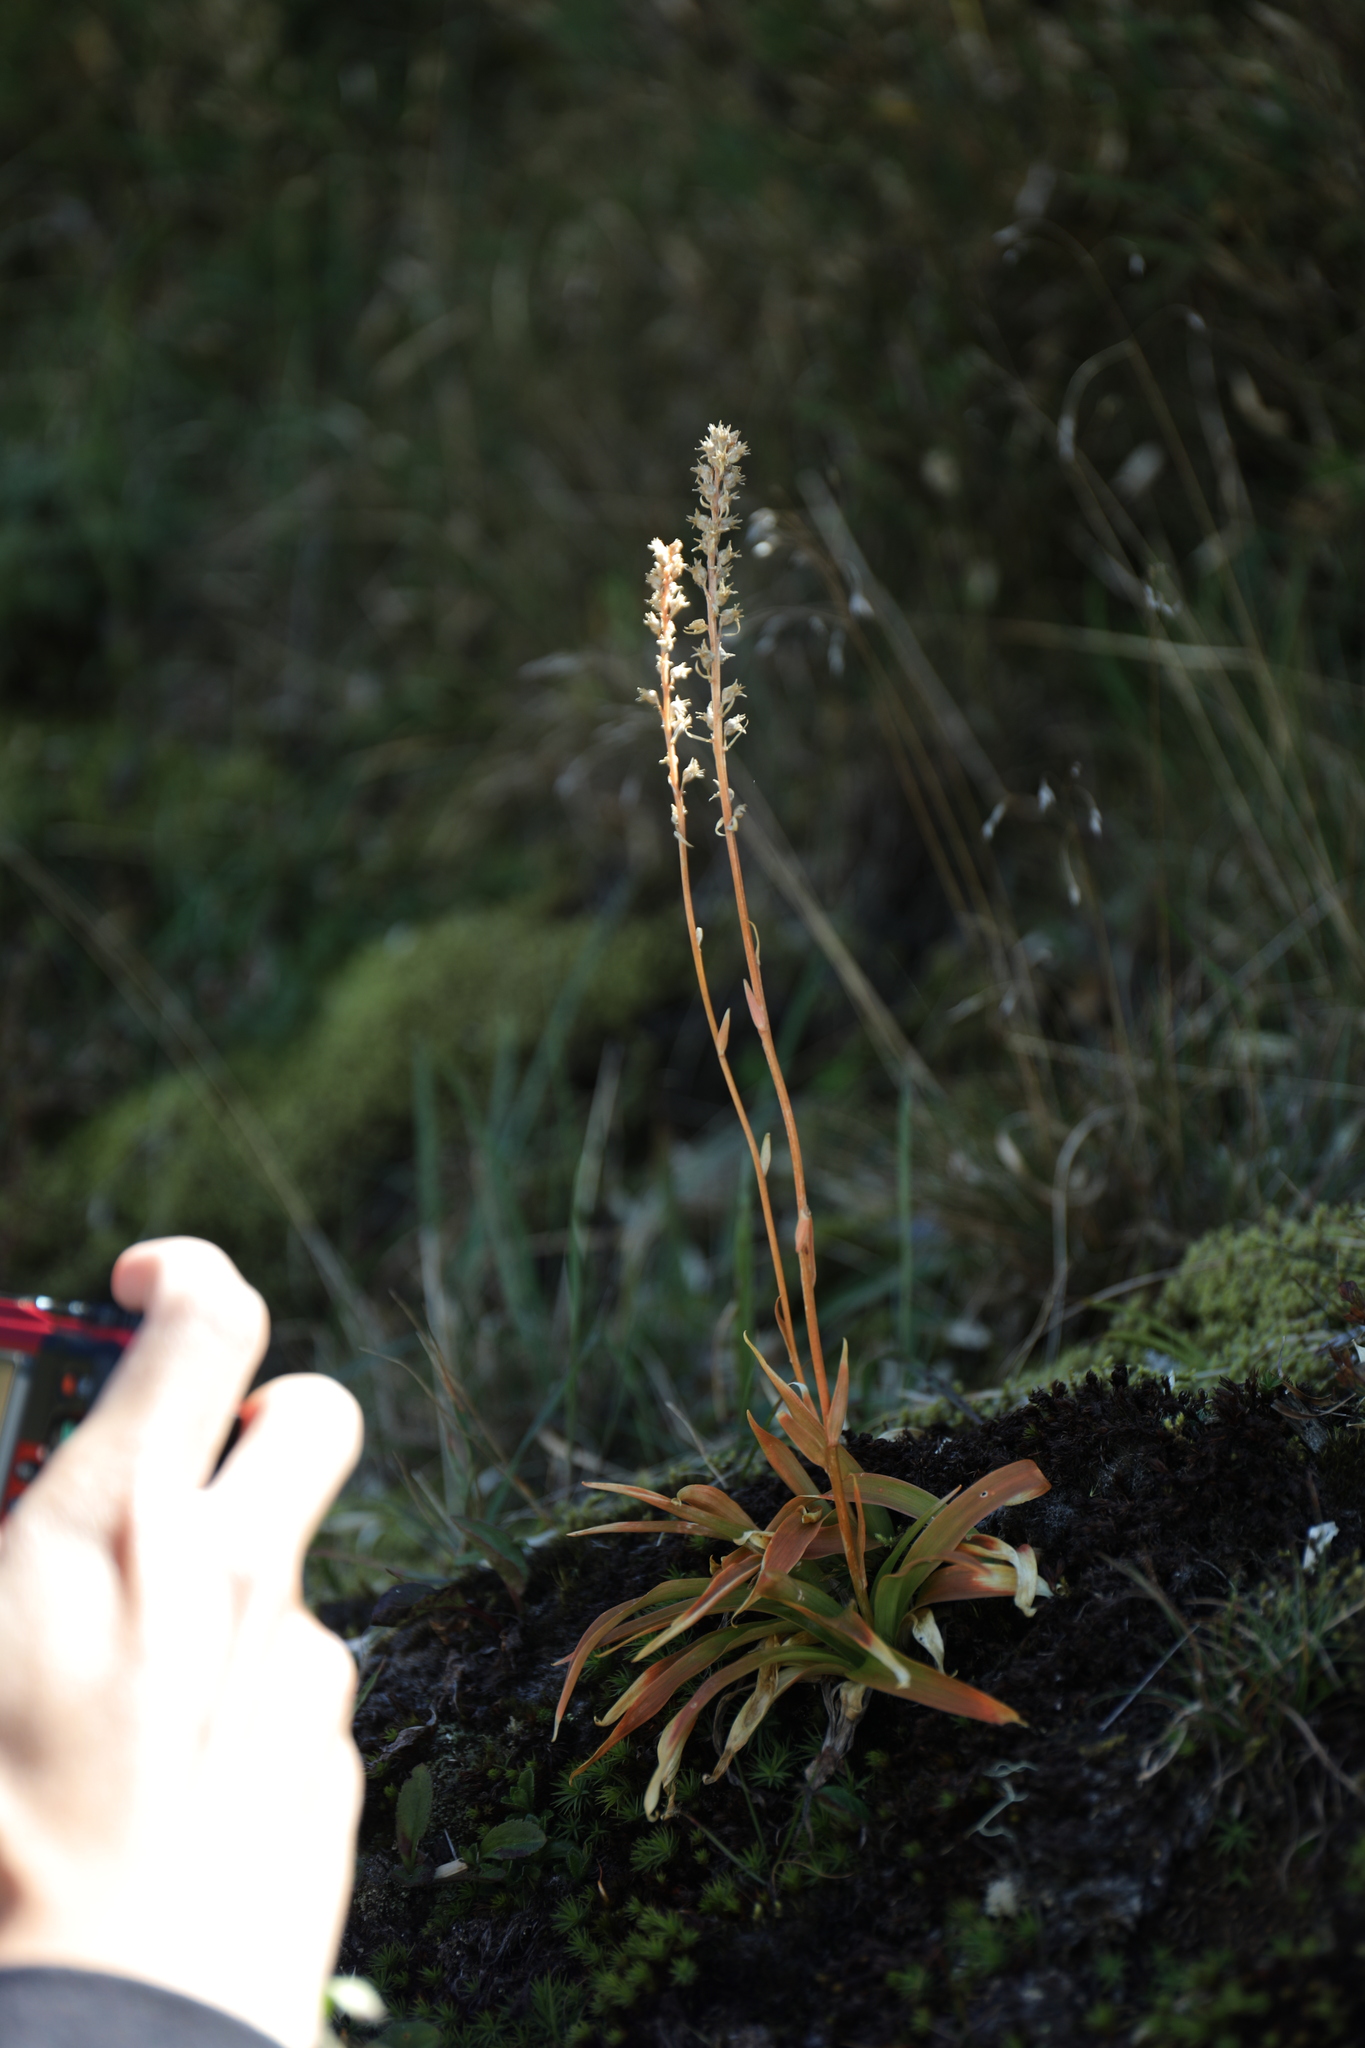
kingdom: Plantae
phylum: Tracheophyta
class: Liliopsida
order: Dioscoreales
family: Nartheciaceae
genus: Aletris
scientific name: Aletris glabra
